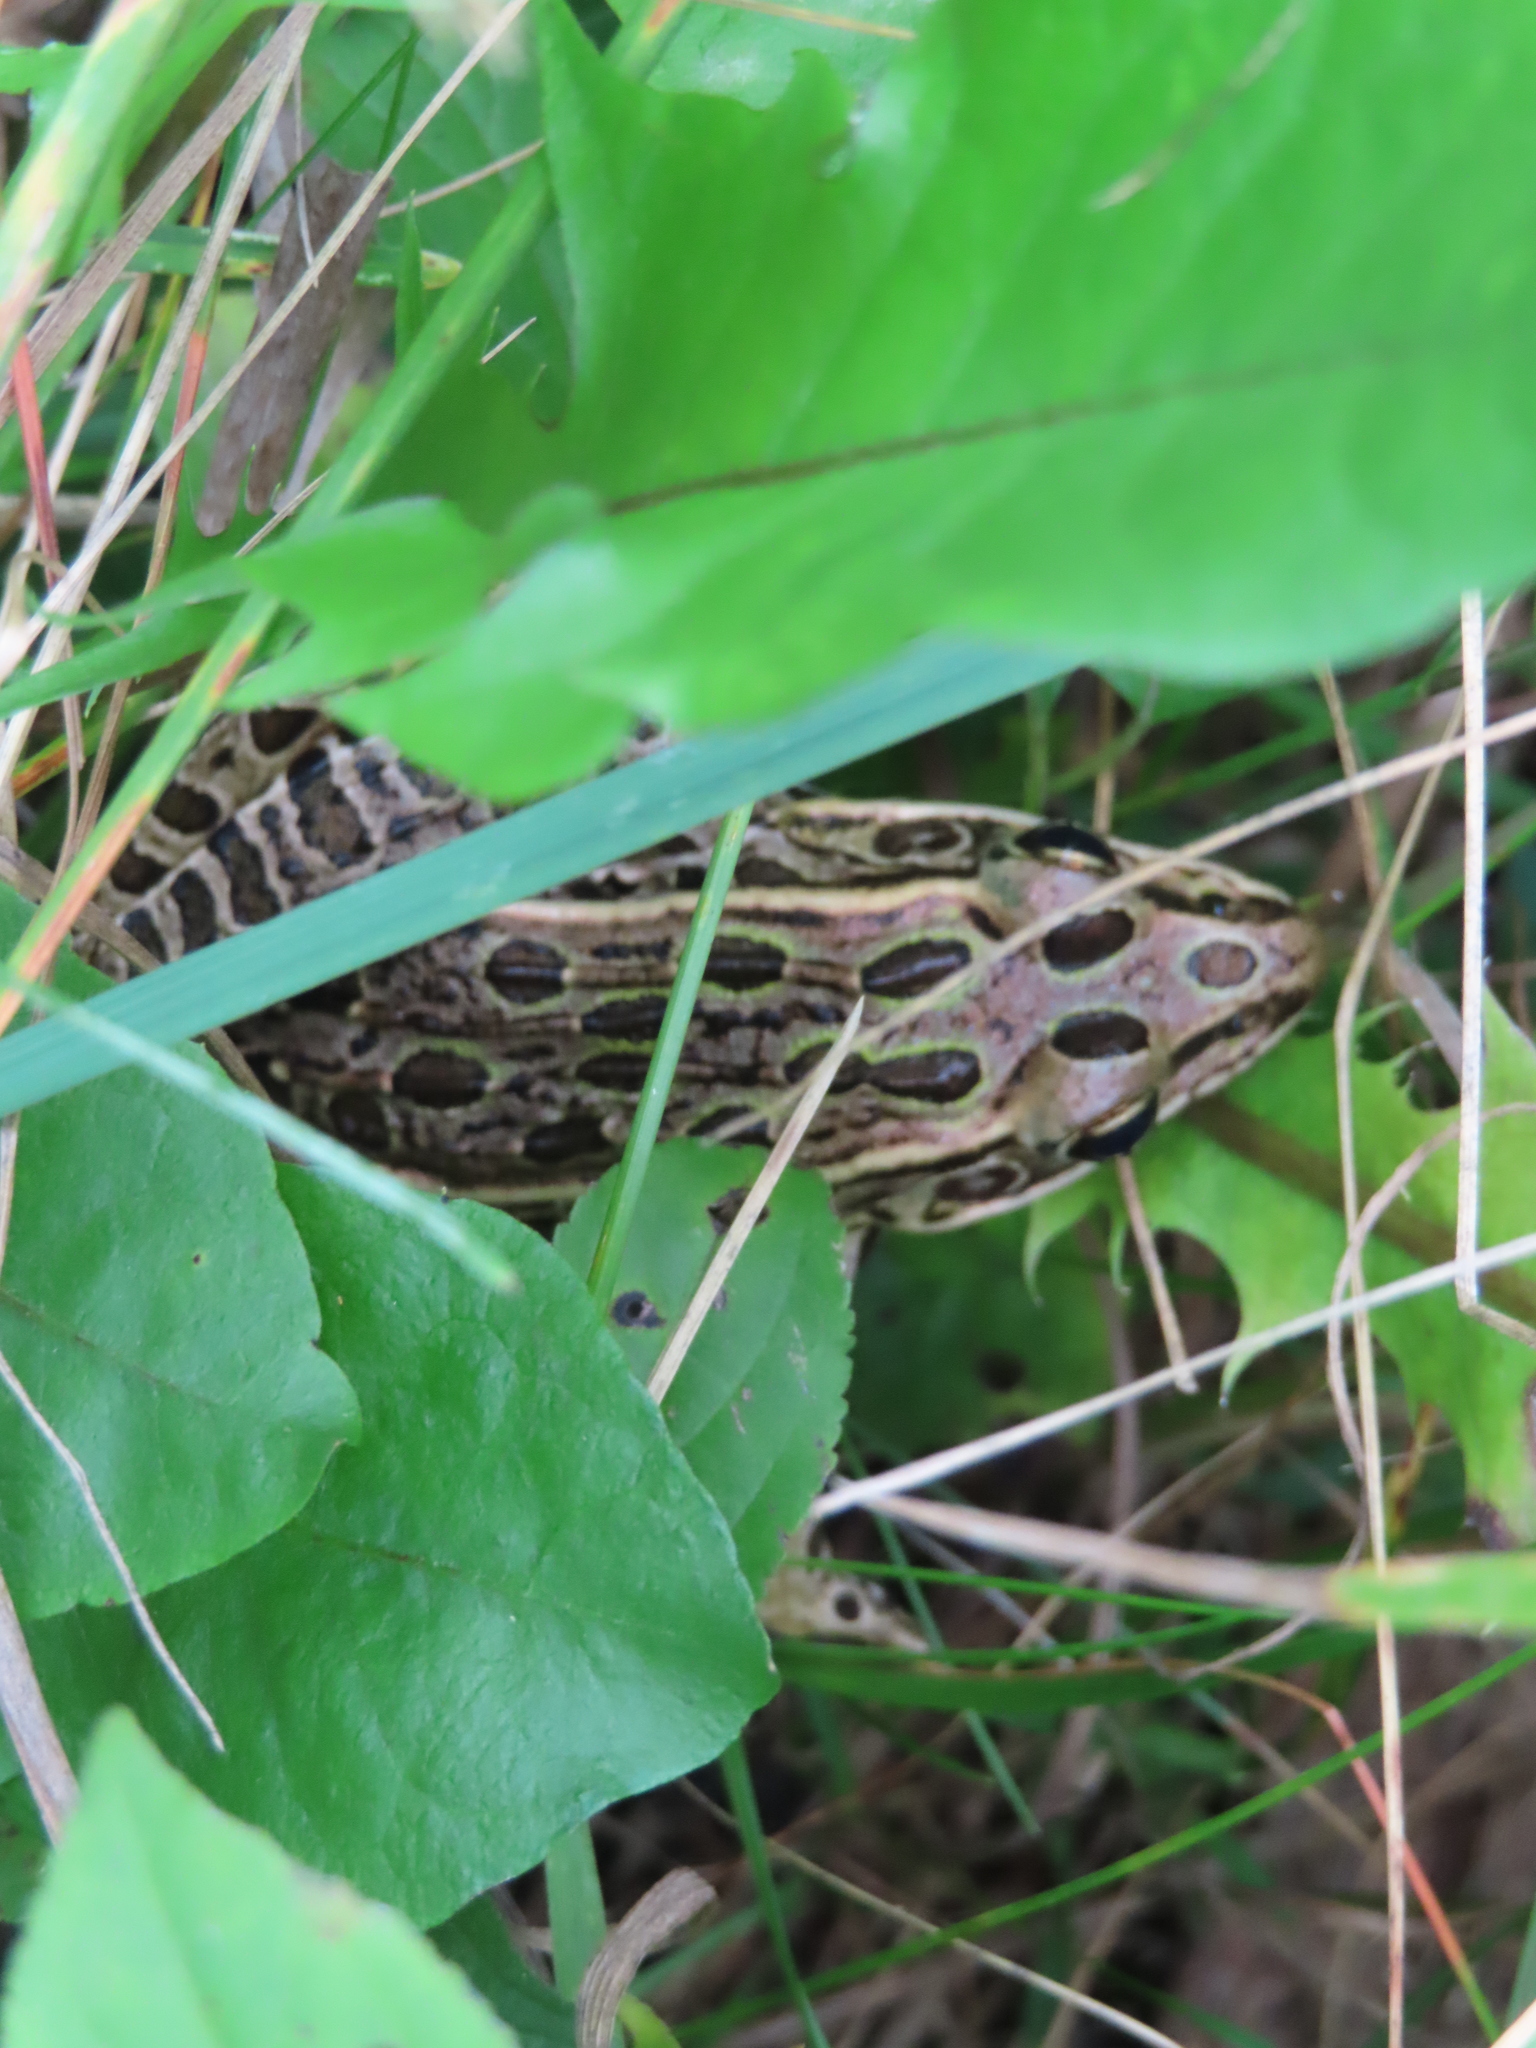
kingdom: Animalia
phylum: Chordata
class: Amphibia
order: Anura
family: Ranidae
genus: Lithobates
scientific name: Lithobates pipiens
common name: Northern leopard frog
